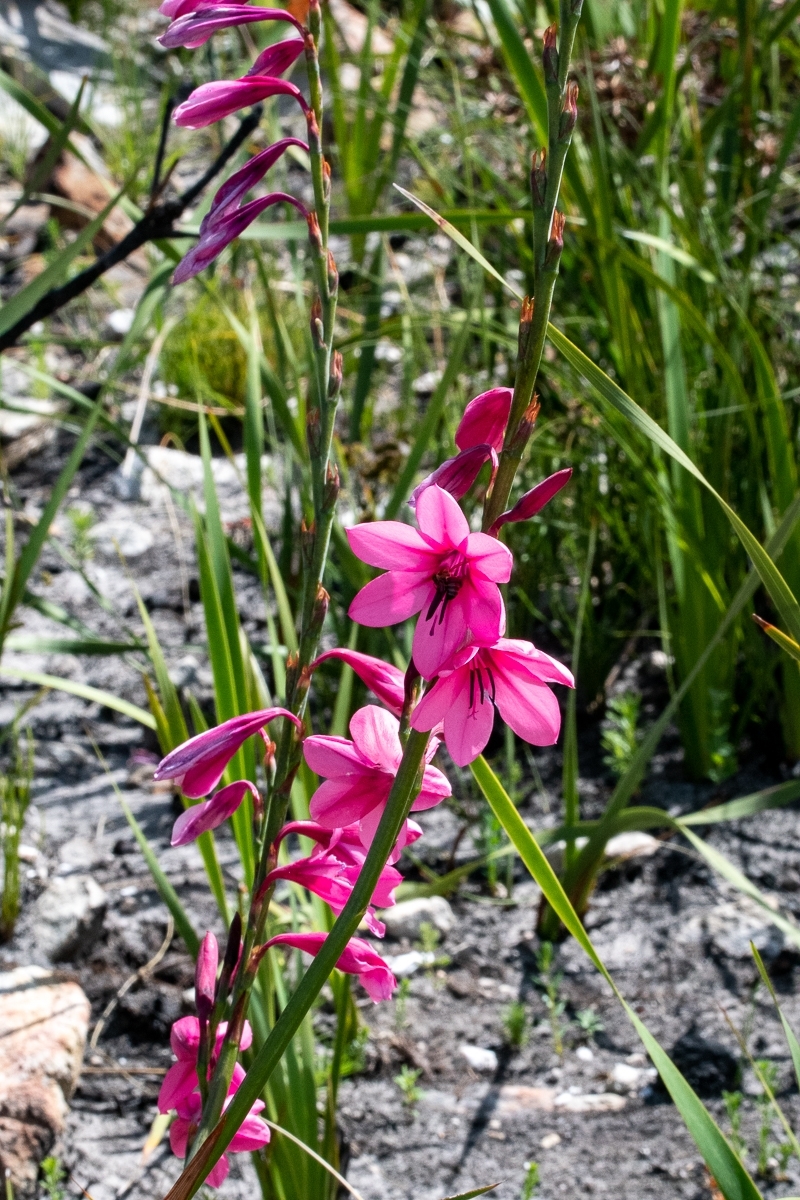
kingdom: Plantae
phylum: Tracheophyta
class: Liliopsida
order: Asparagales
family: Iridaceae
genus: Watsonia
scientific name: Watsonia borbonica
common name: Bugle-lily
